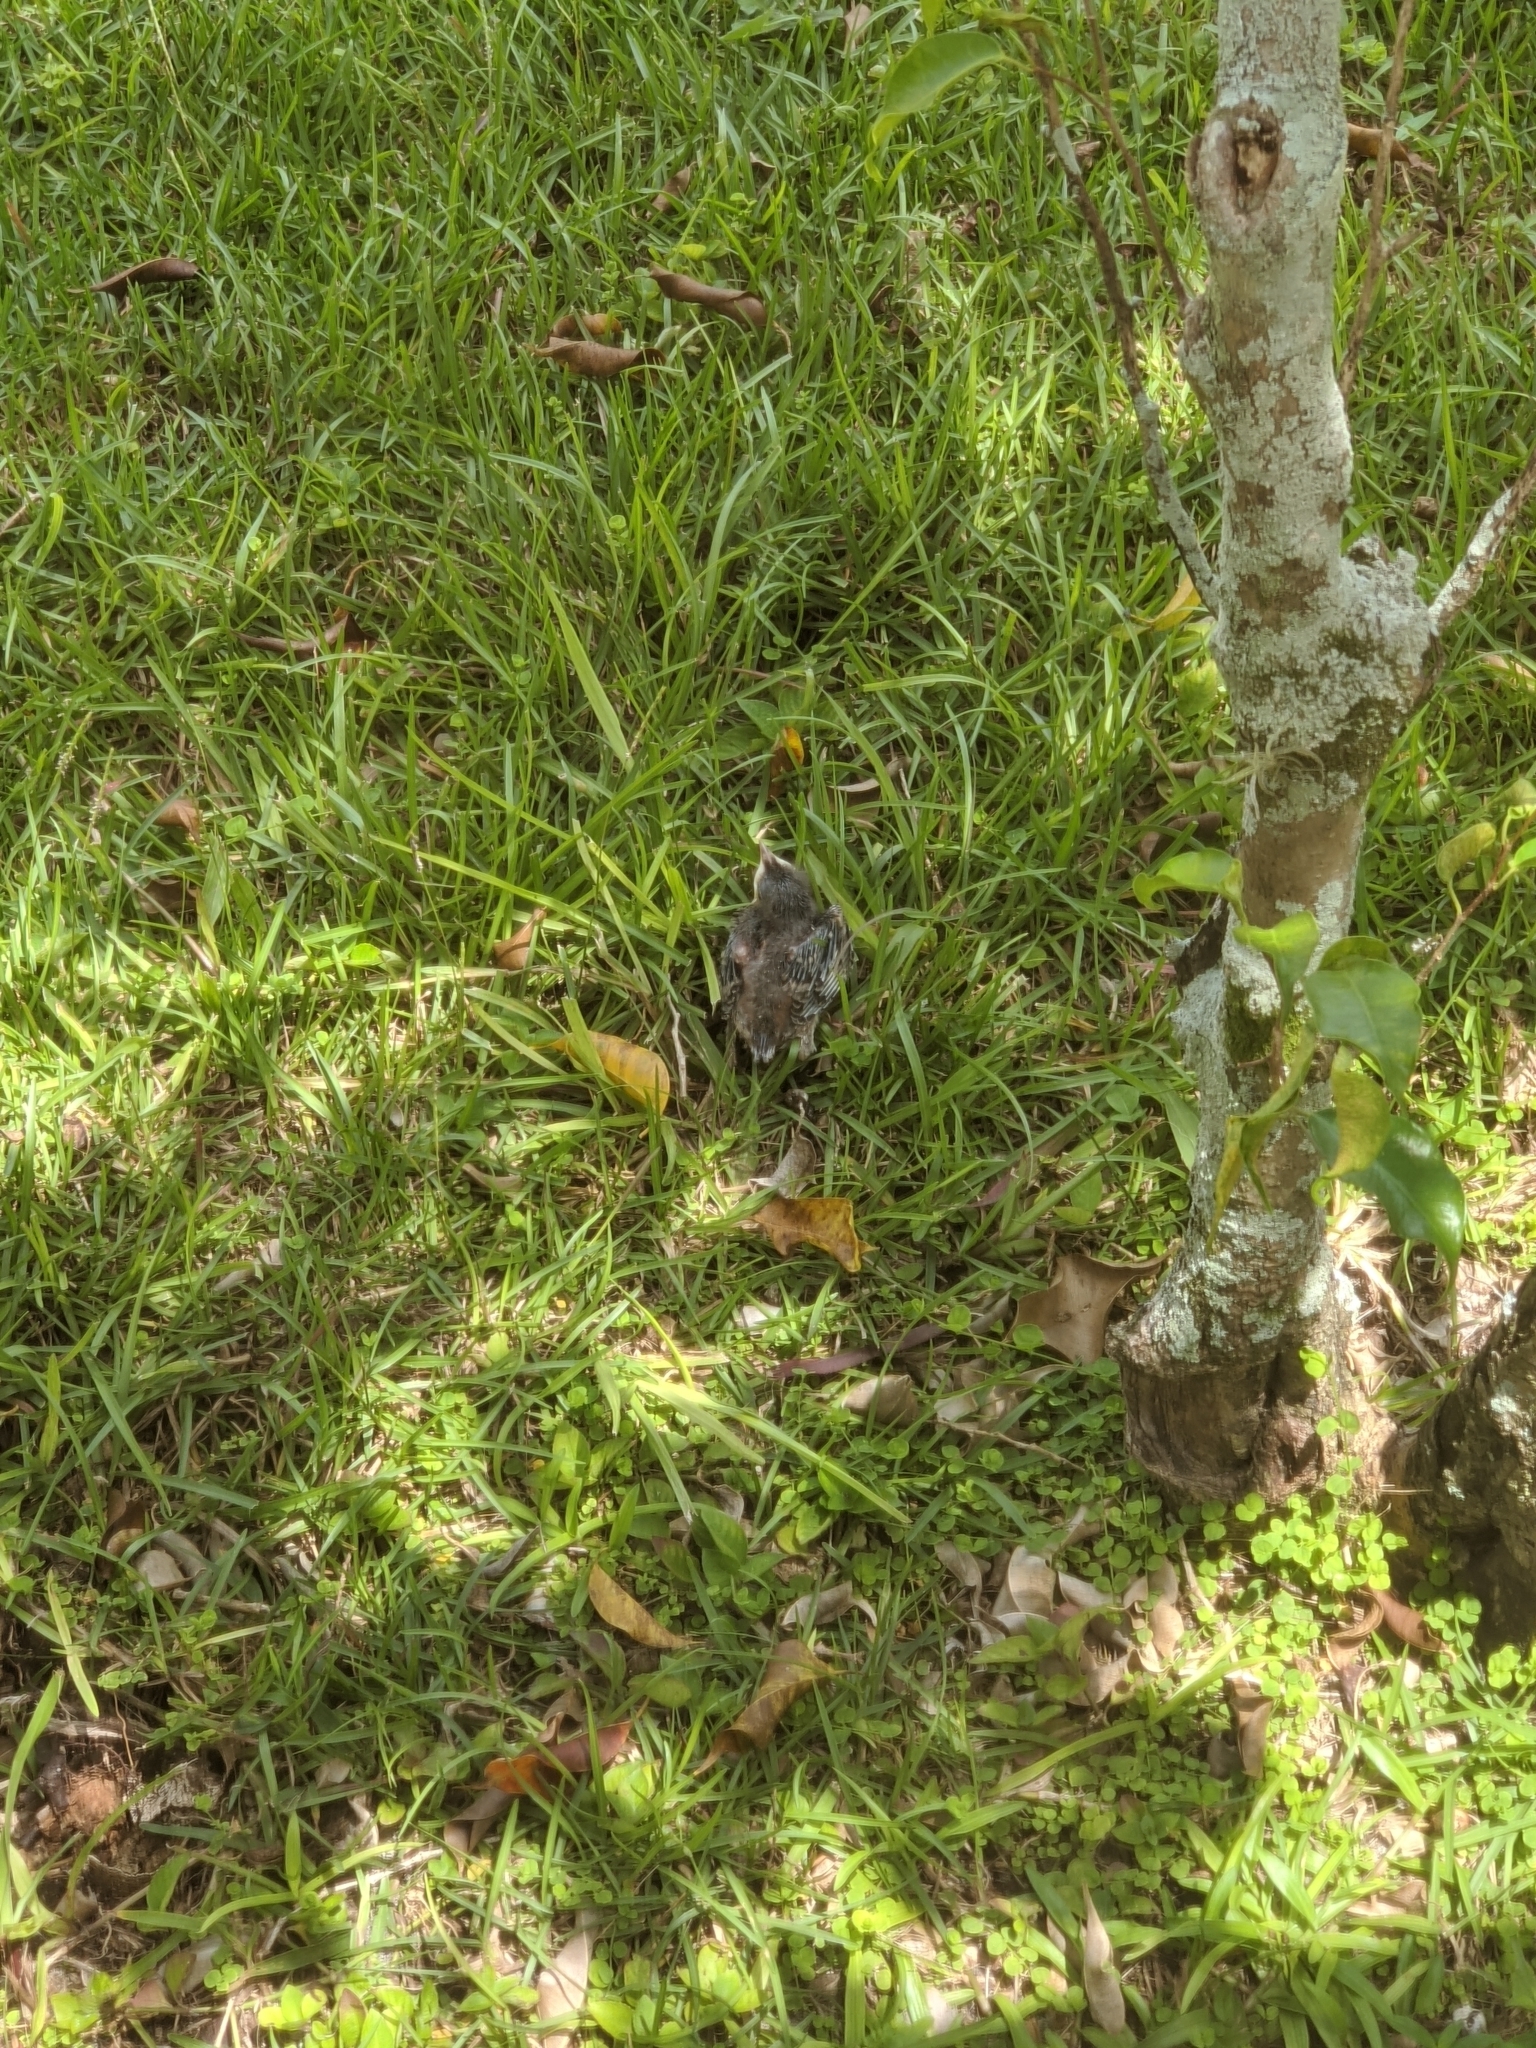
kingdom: Animalia
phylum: Chordata
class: Aves
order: Passeriformes
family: Mimidae
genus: Mimus
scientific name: Mimus polyglottos
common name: Northern mockingbird
